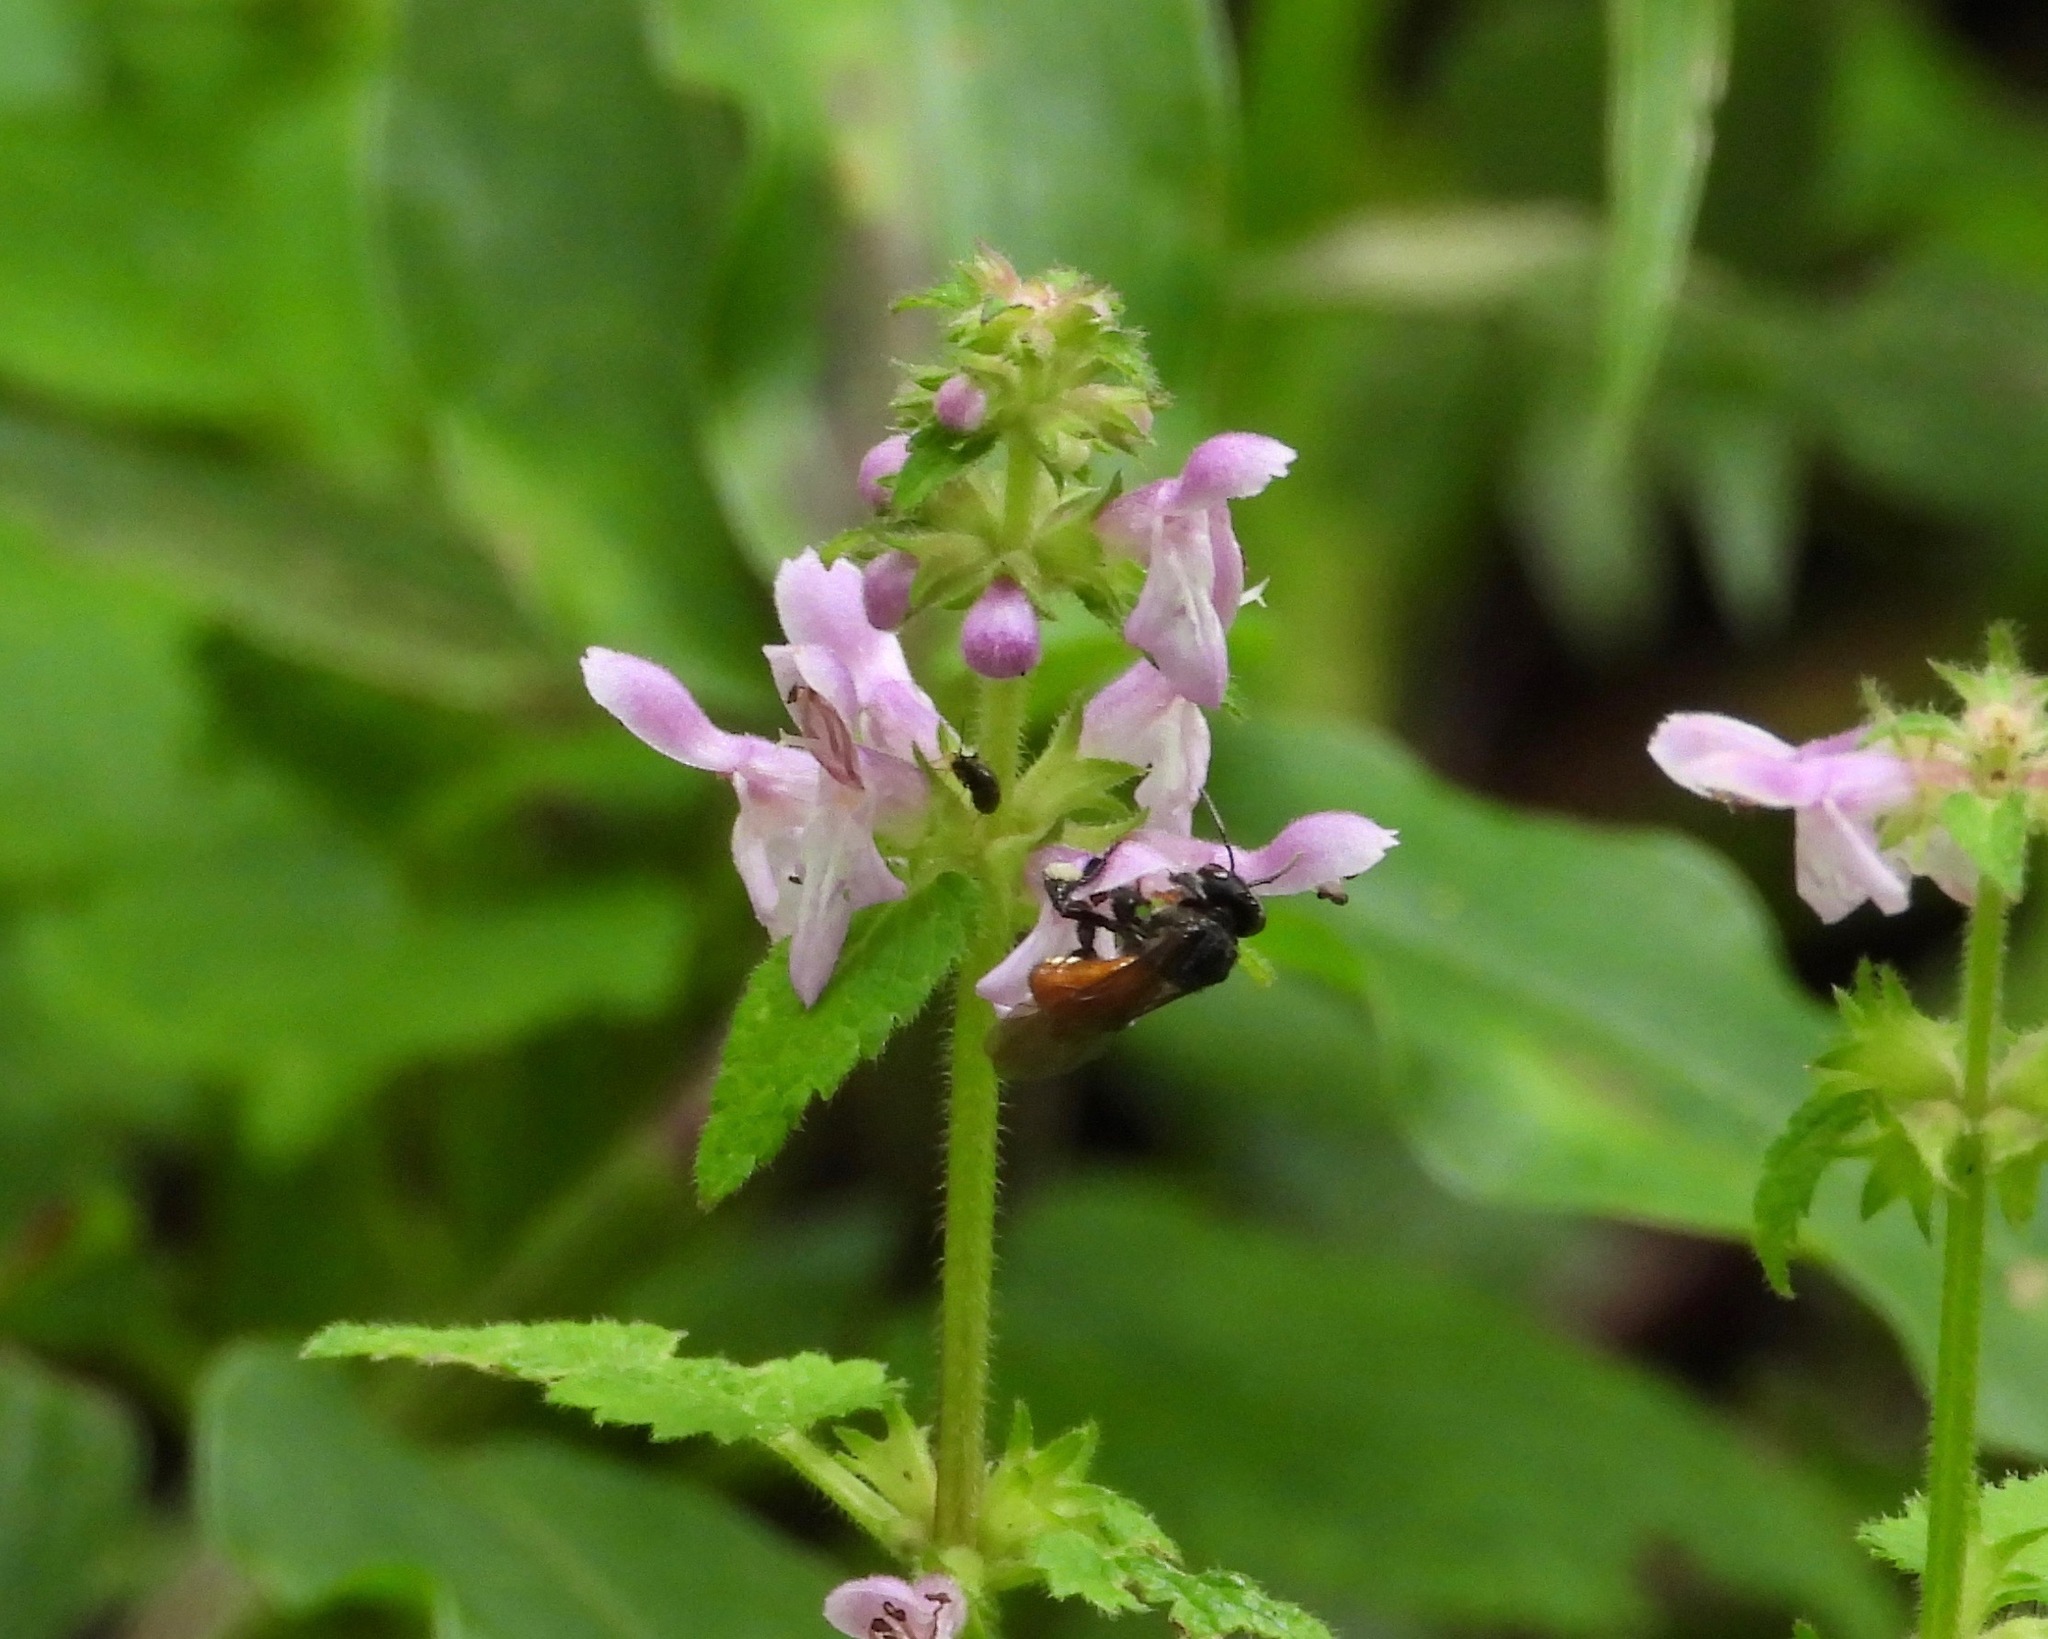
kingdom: Animalia
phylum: Arthropoda
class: Insecta
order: Hymenoptera
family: Apidae
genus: Trigona
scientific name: Trigona fulviventris
